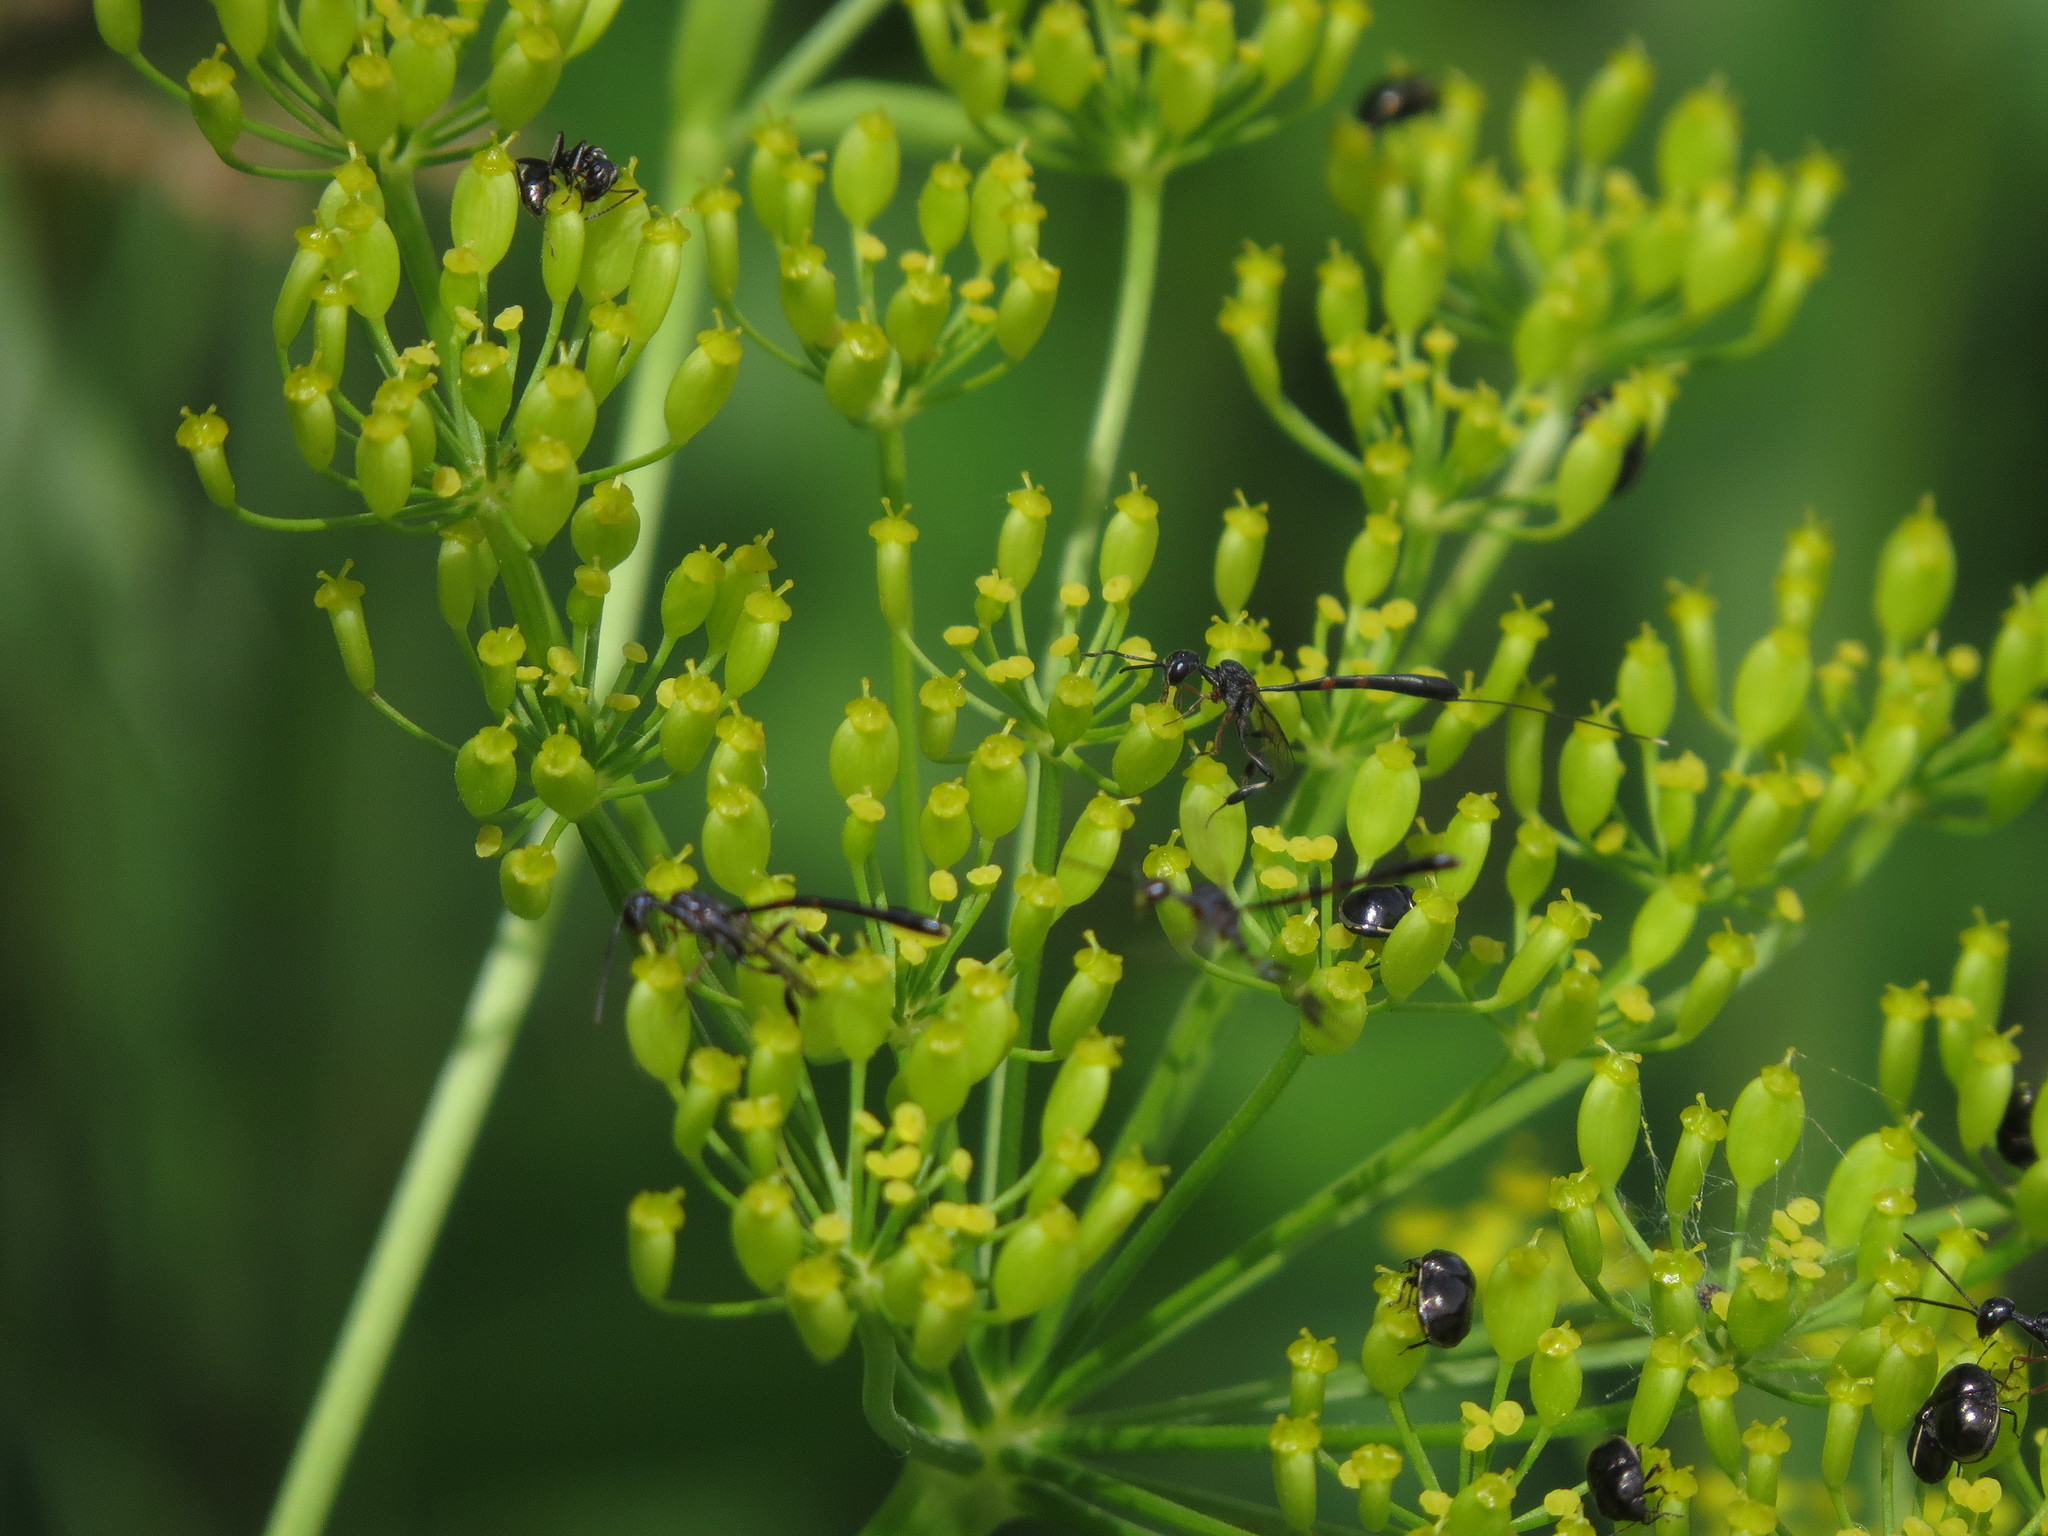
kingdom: Plantae
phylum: Tracheophyta
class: Magnoliopsida
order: Apiales
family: Apiaceae
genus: Zizia
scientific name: Zizia aurea
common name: Golden alexanders
